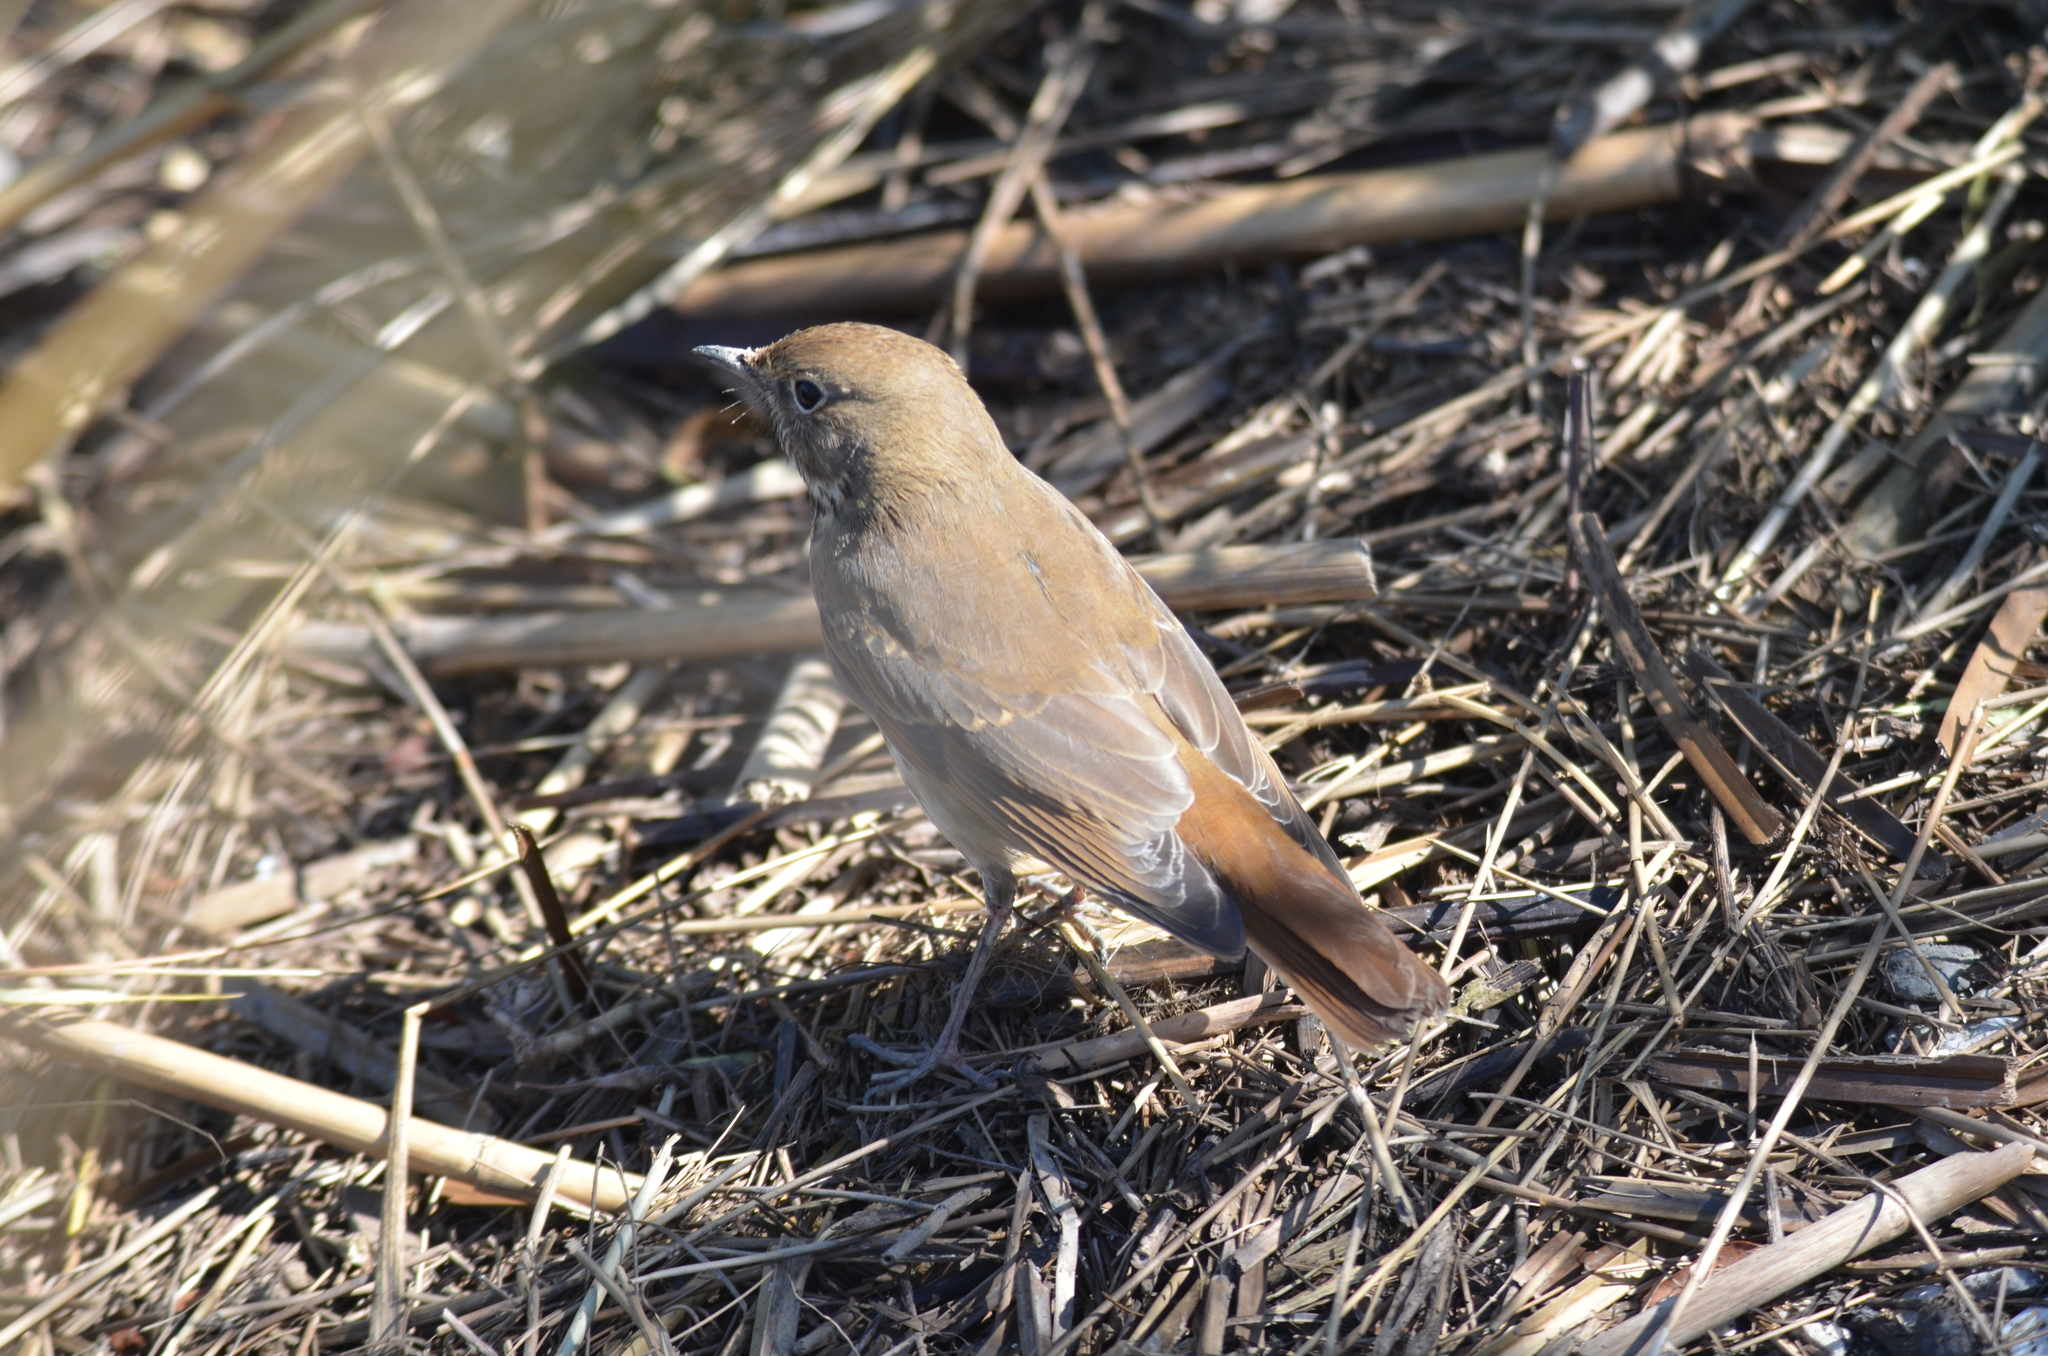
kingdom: Animalia
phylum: Chordata
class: Aves
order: Passeriformes
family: Turdidae
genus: Catharus
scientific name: Catharus guttatus
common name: Hermit thrush
